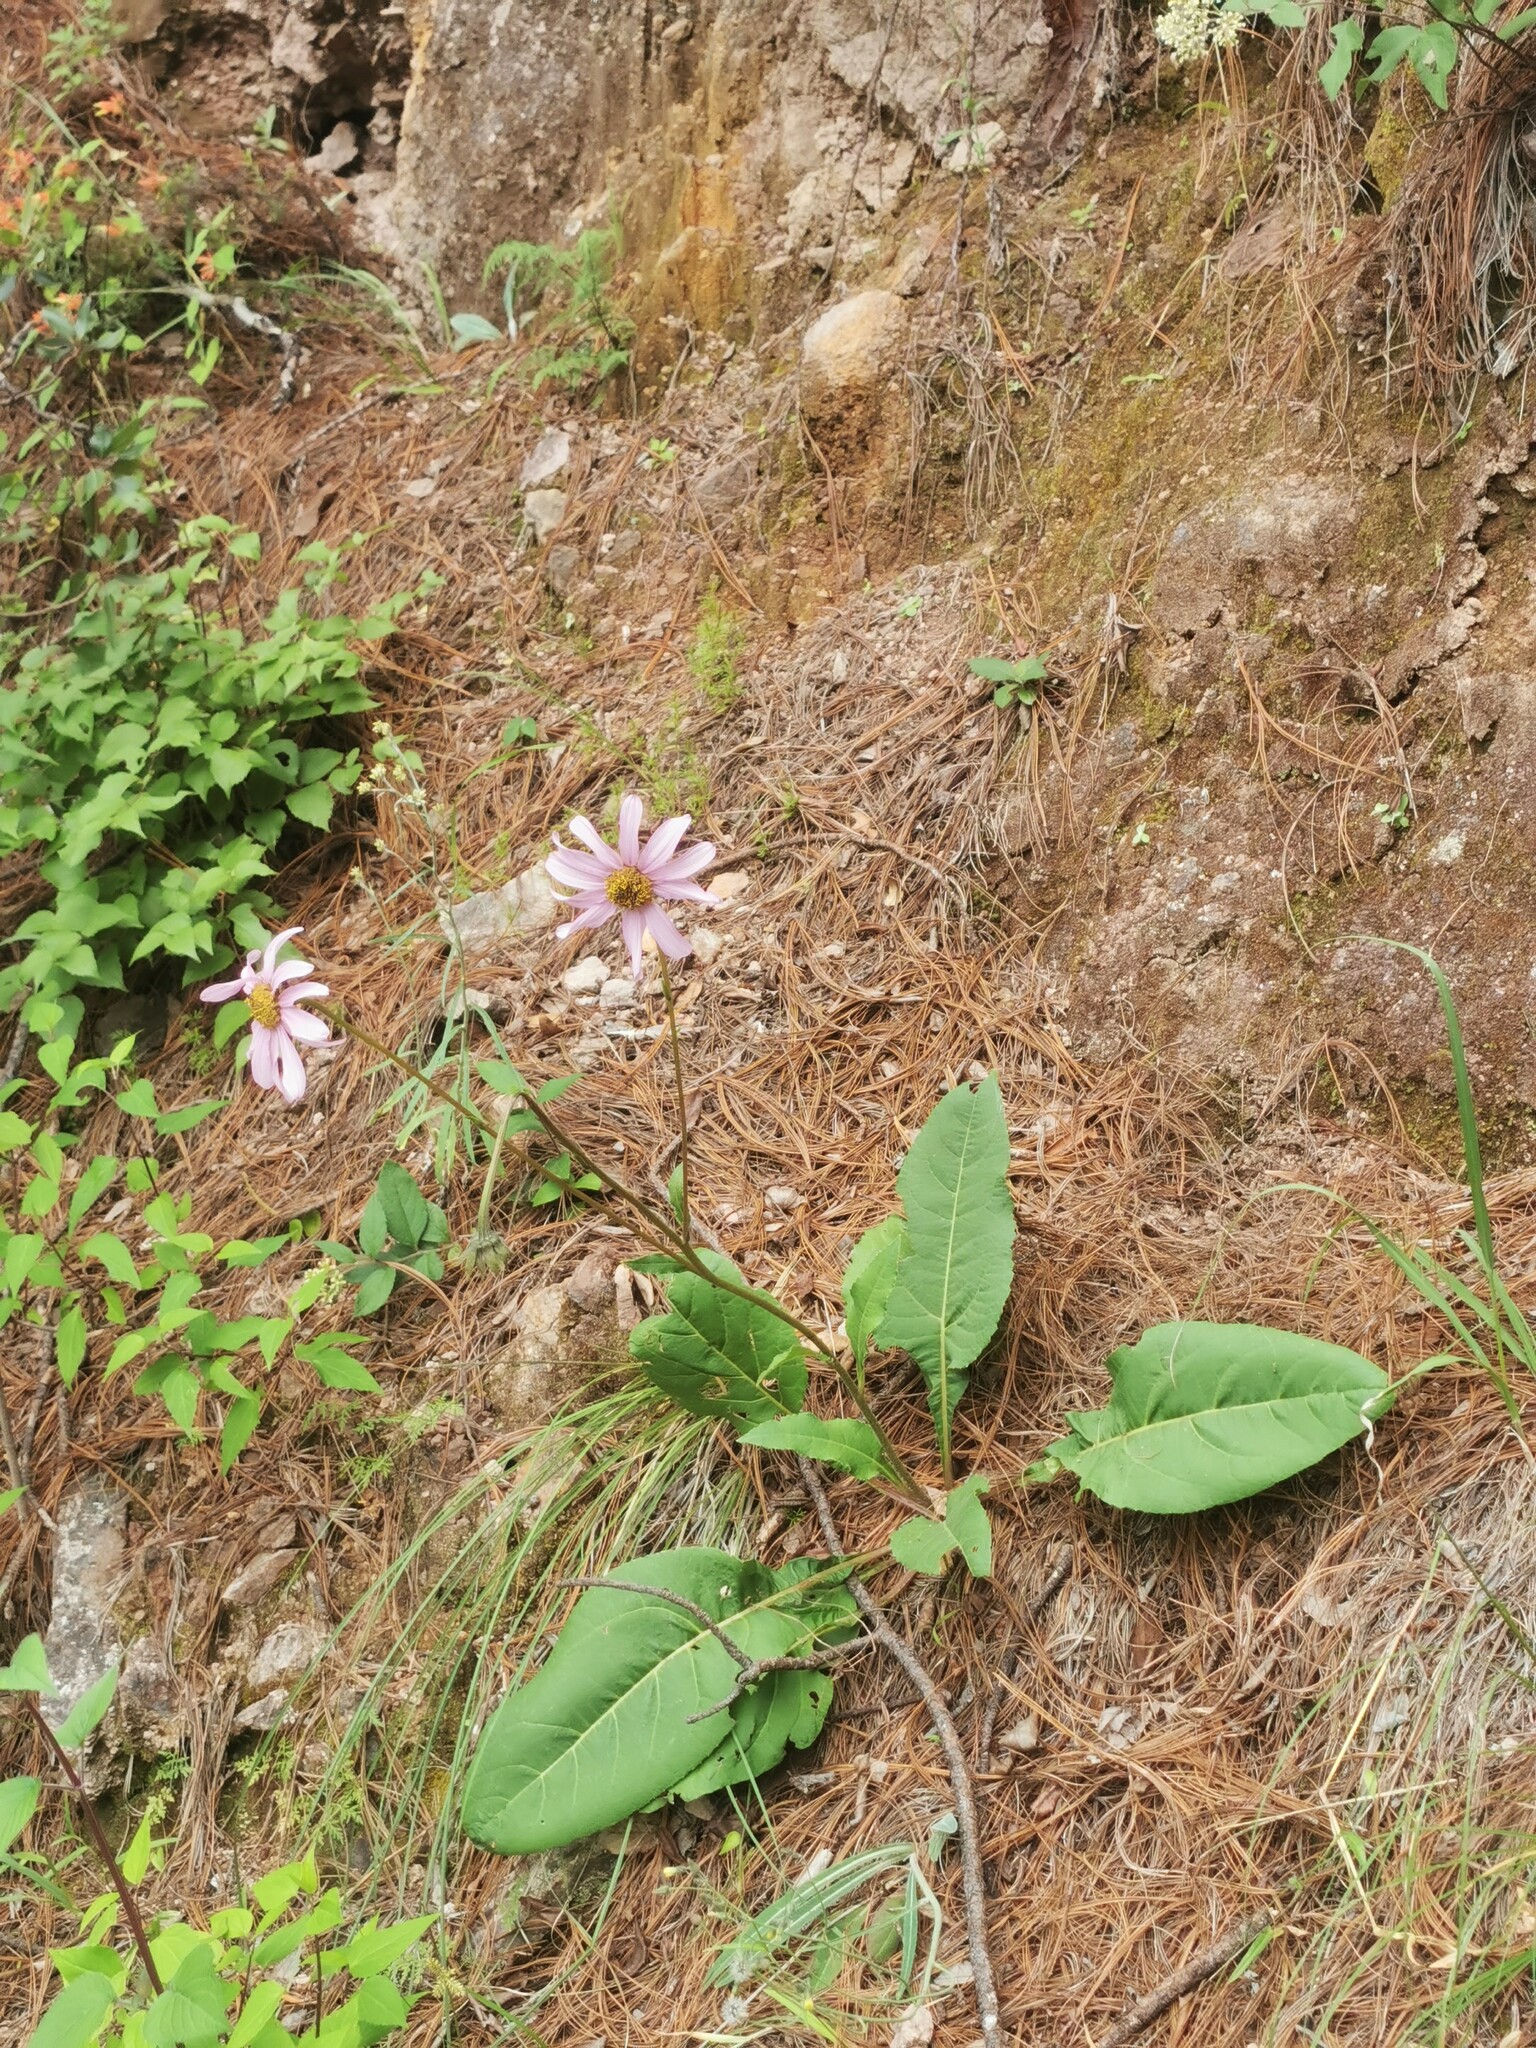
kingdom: Plantae
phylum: Tracheophyta
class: Magnoliopsida
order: Asterales
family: Asteraceae
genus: Iostephane
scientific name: Iostephane heterophylla
